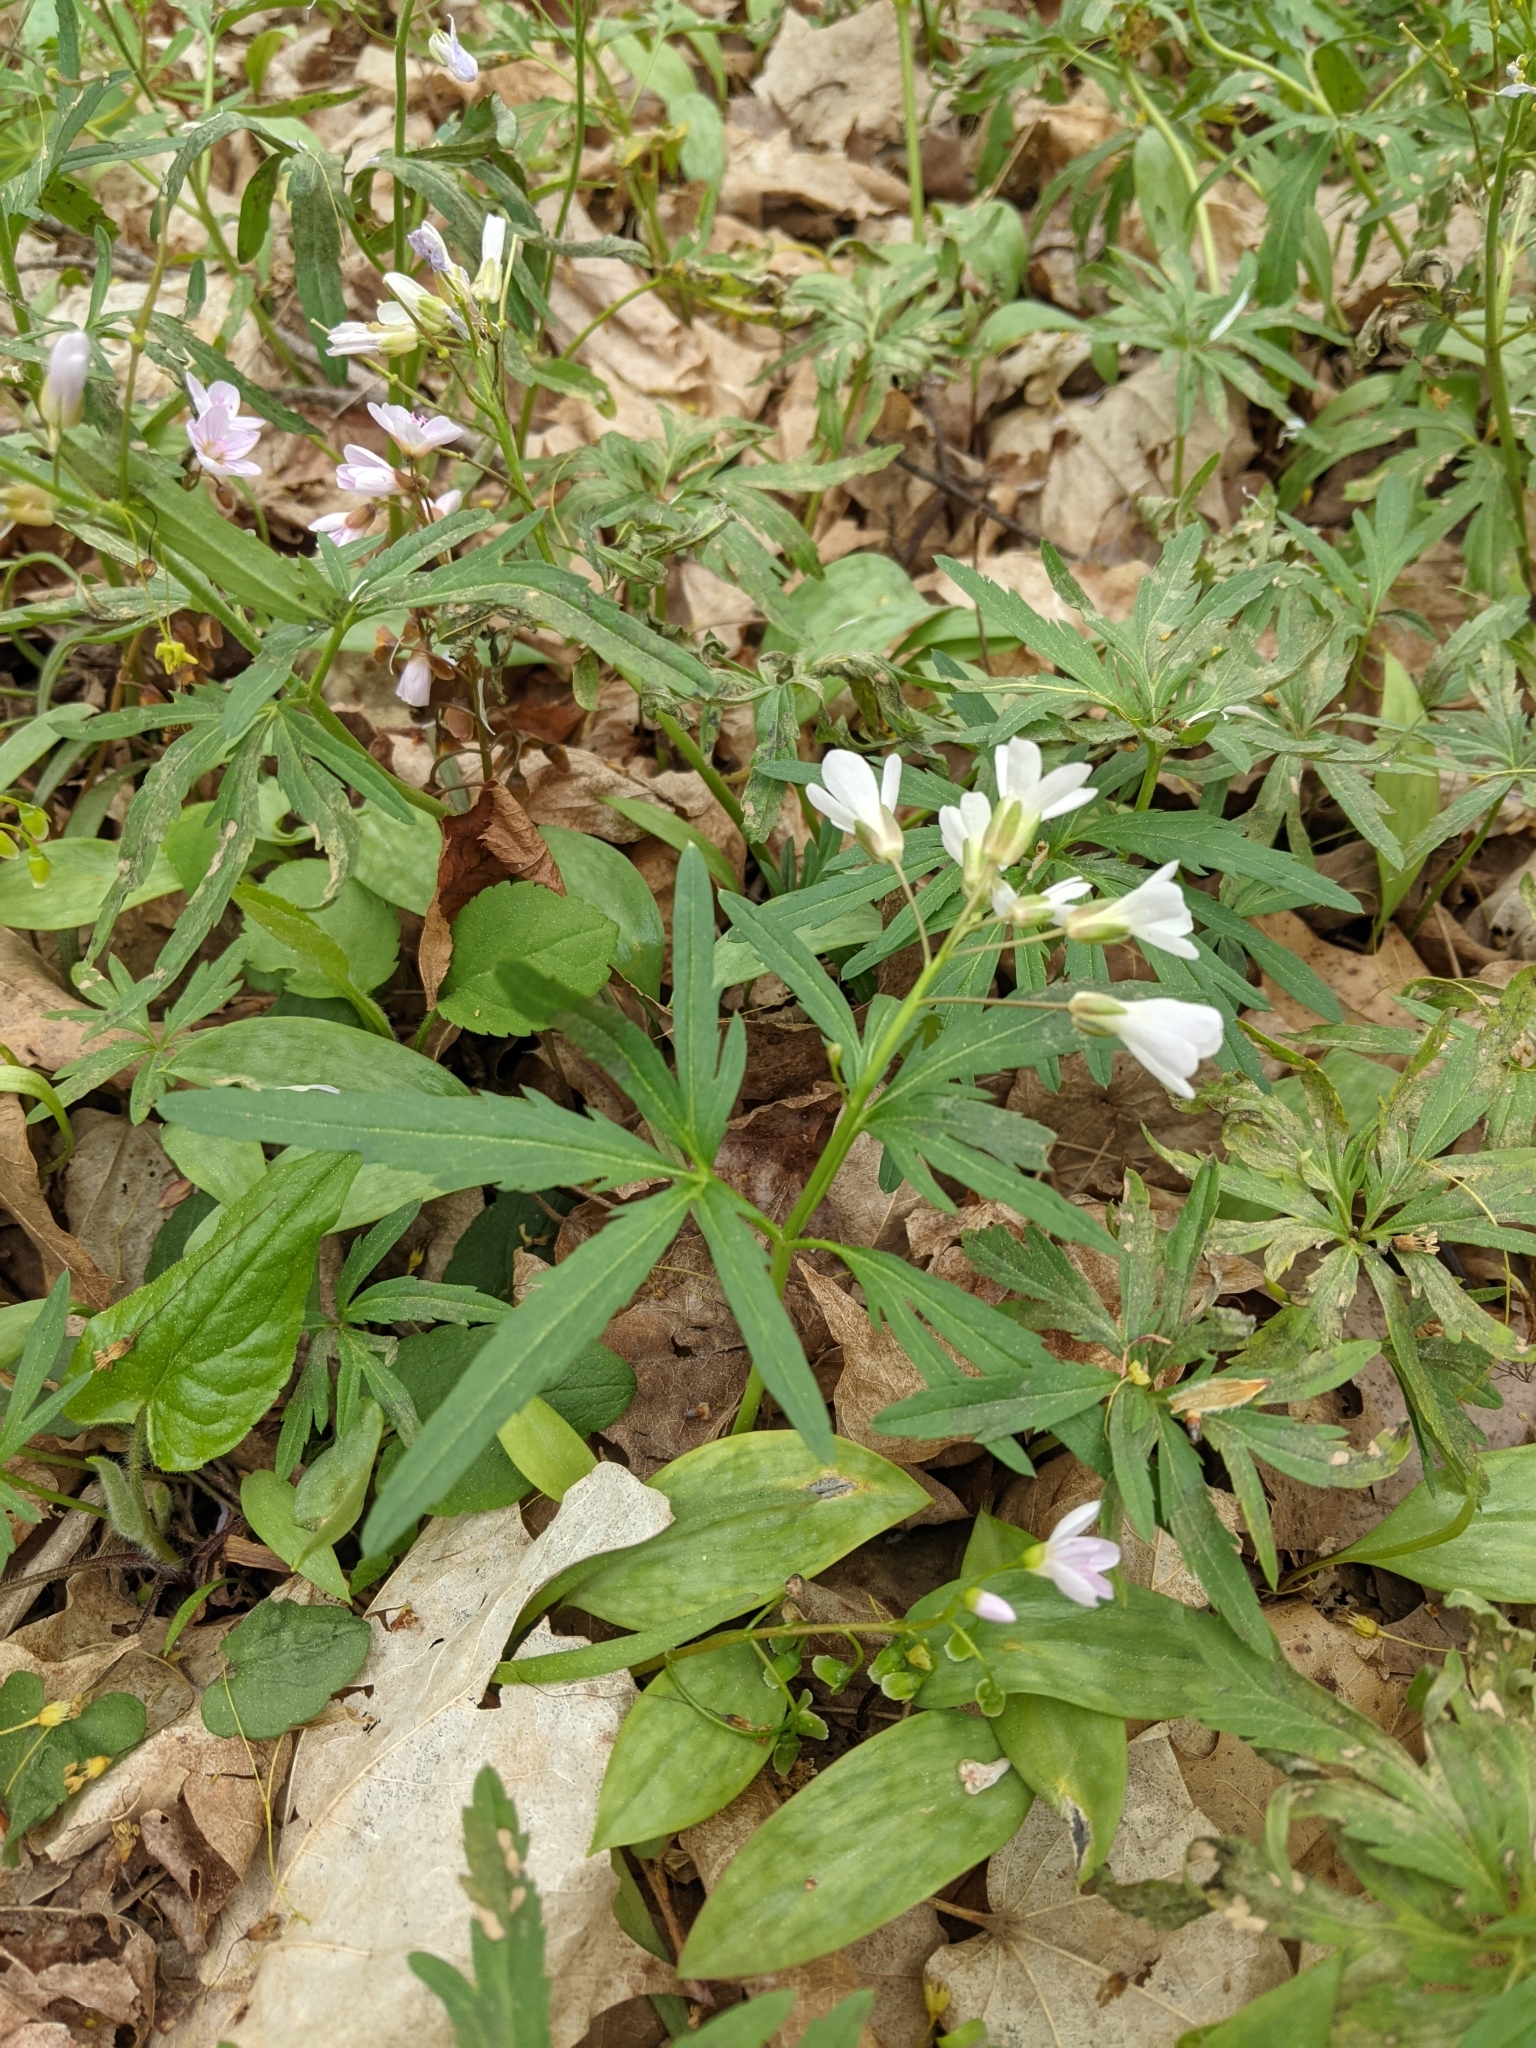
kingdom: Plantae
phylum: Tracheophyta
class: Magnoliopsida
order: Brassicales
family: Brassicaceae
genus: Cardamine
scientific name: Cardamine concatenata
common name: Cut-leaf toothcup
